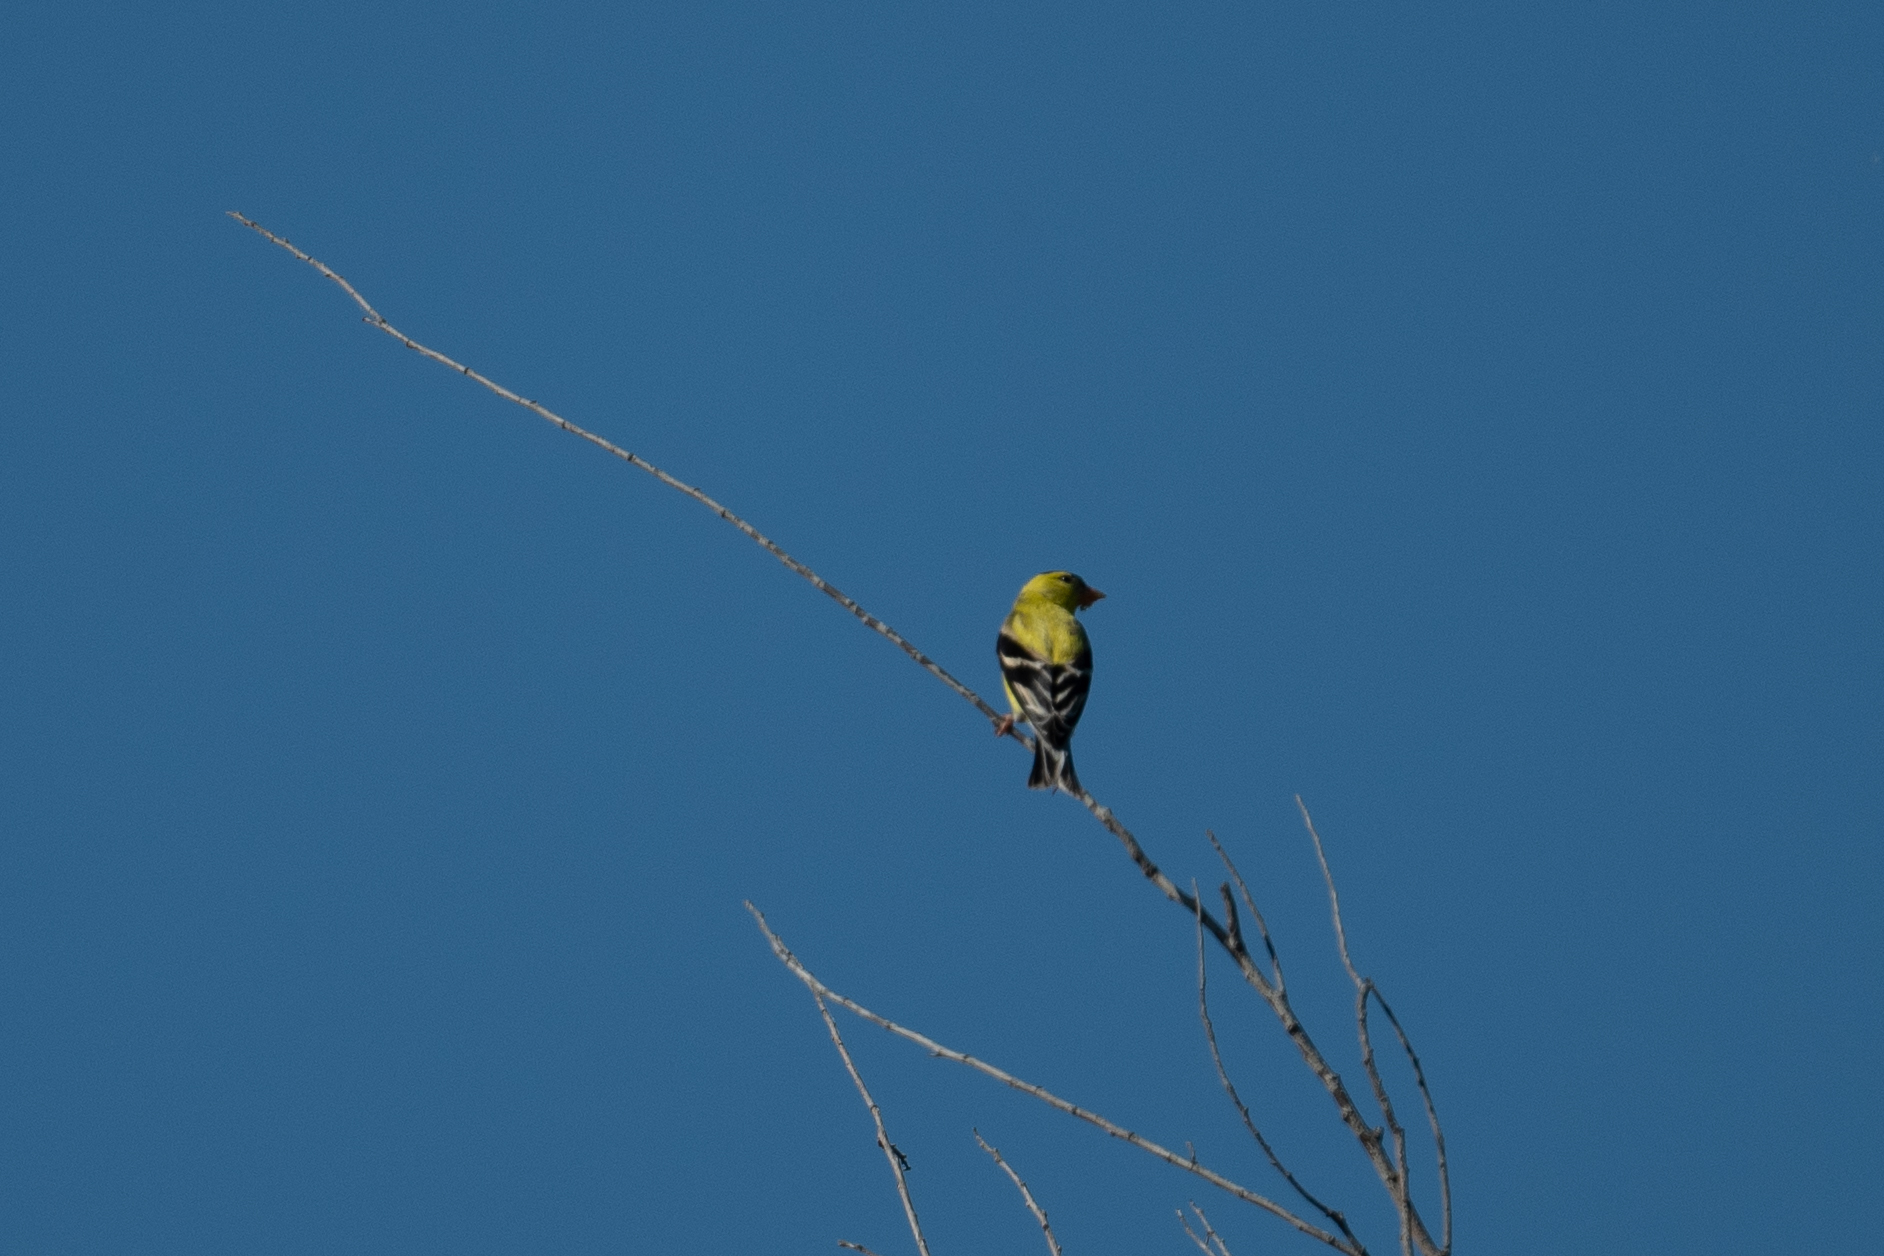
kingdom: Animalia
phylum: Chordata
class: Aves
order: Passeriformes
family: Fringillidae
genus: Spinus
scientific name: Spinus tristis
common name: American goldfinch
